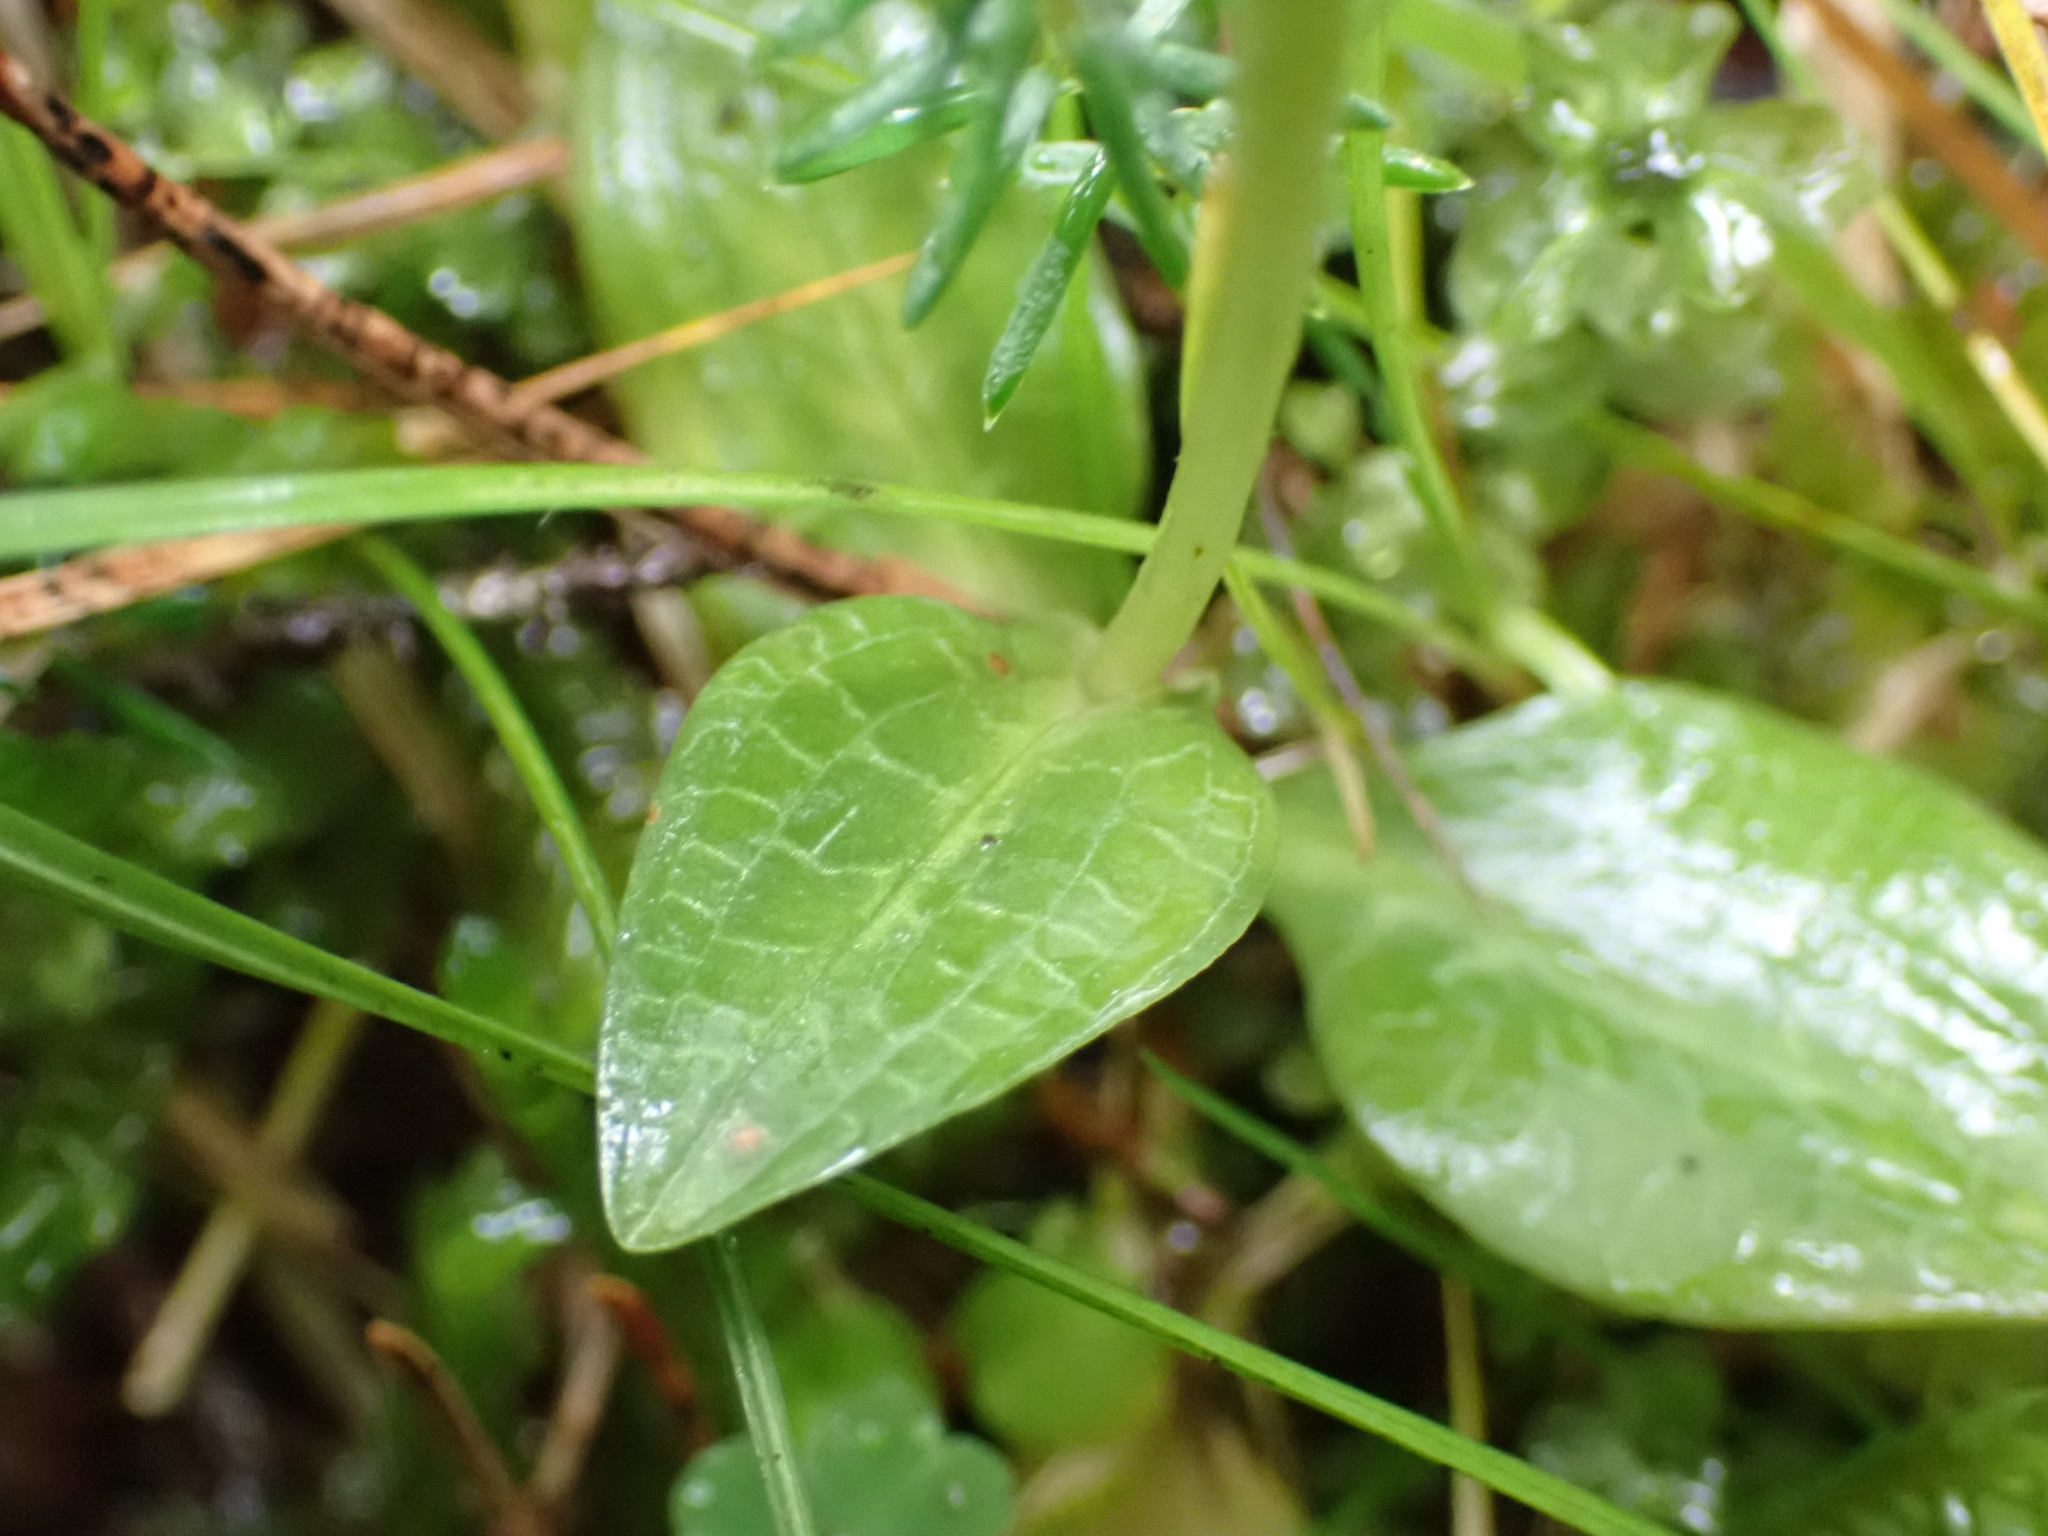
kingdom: Plantae
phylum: Tracheophyta
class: Liliopsida
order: Asparagales
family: Orchidaceae
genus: Goodyera
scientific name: Goodyera repens
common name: Creeping lady's-tresses
